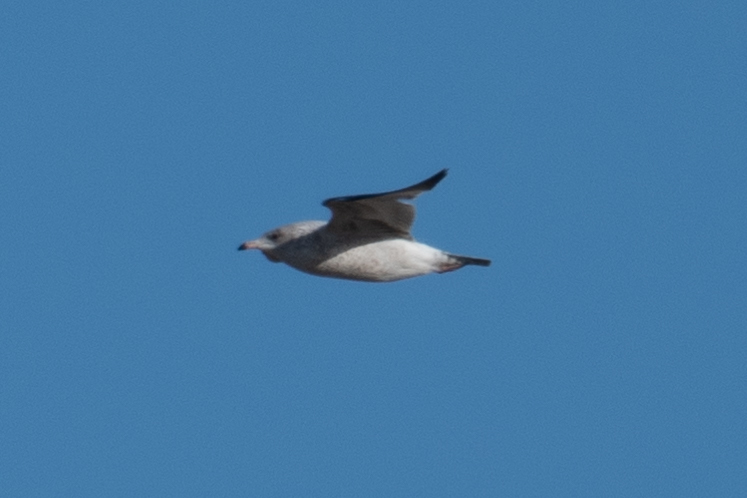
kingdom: Animalia
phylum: Chordata
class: Aves
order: Charadriiformes
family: Laridae
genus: Larus
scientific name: Larus delawarensis
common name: Ring-billed gull
